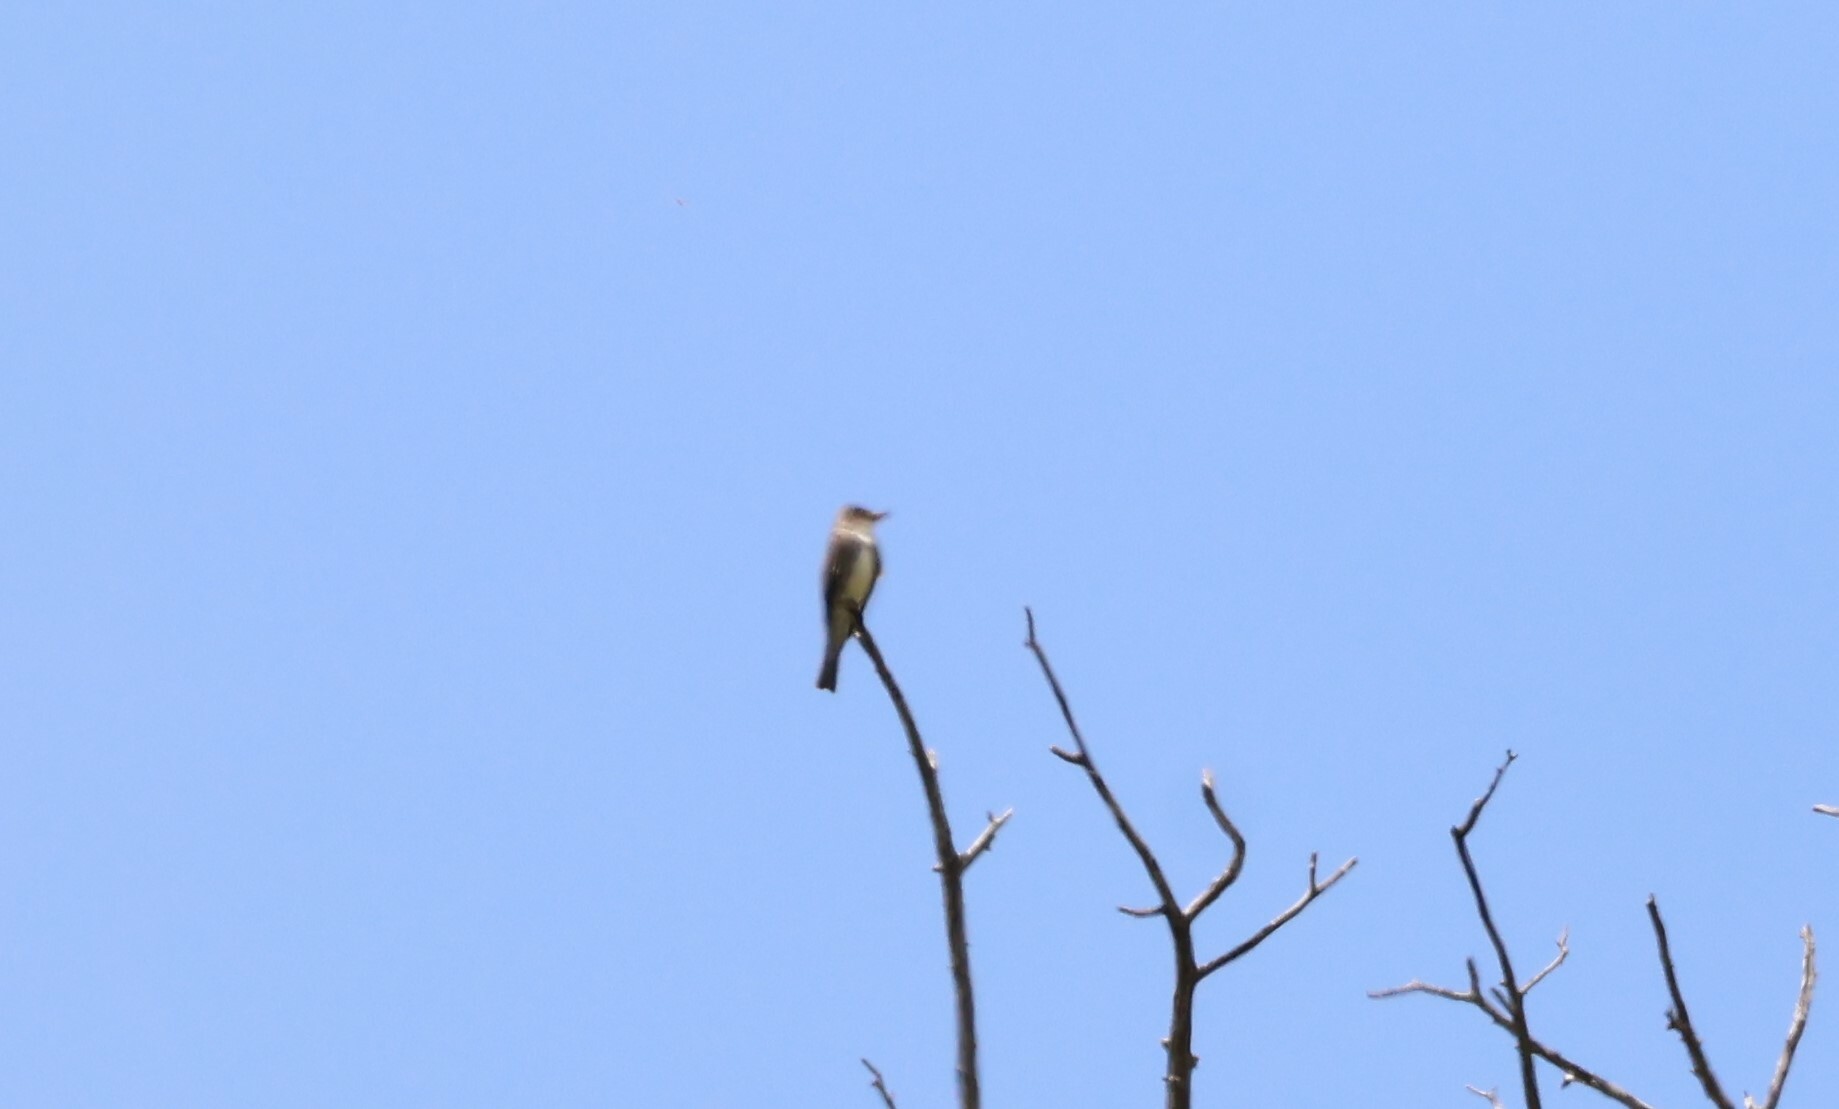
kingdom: Animalia
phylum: Chordata
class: Aves
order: Passeriformes
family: Tyrannidae
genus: Contopus
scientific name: Contopus cooperi
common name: Olive-sided flycatcher
